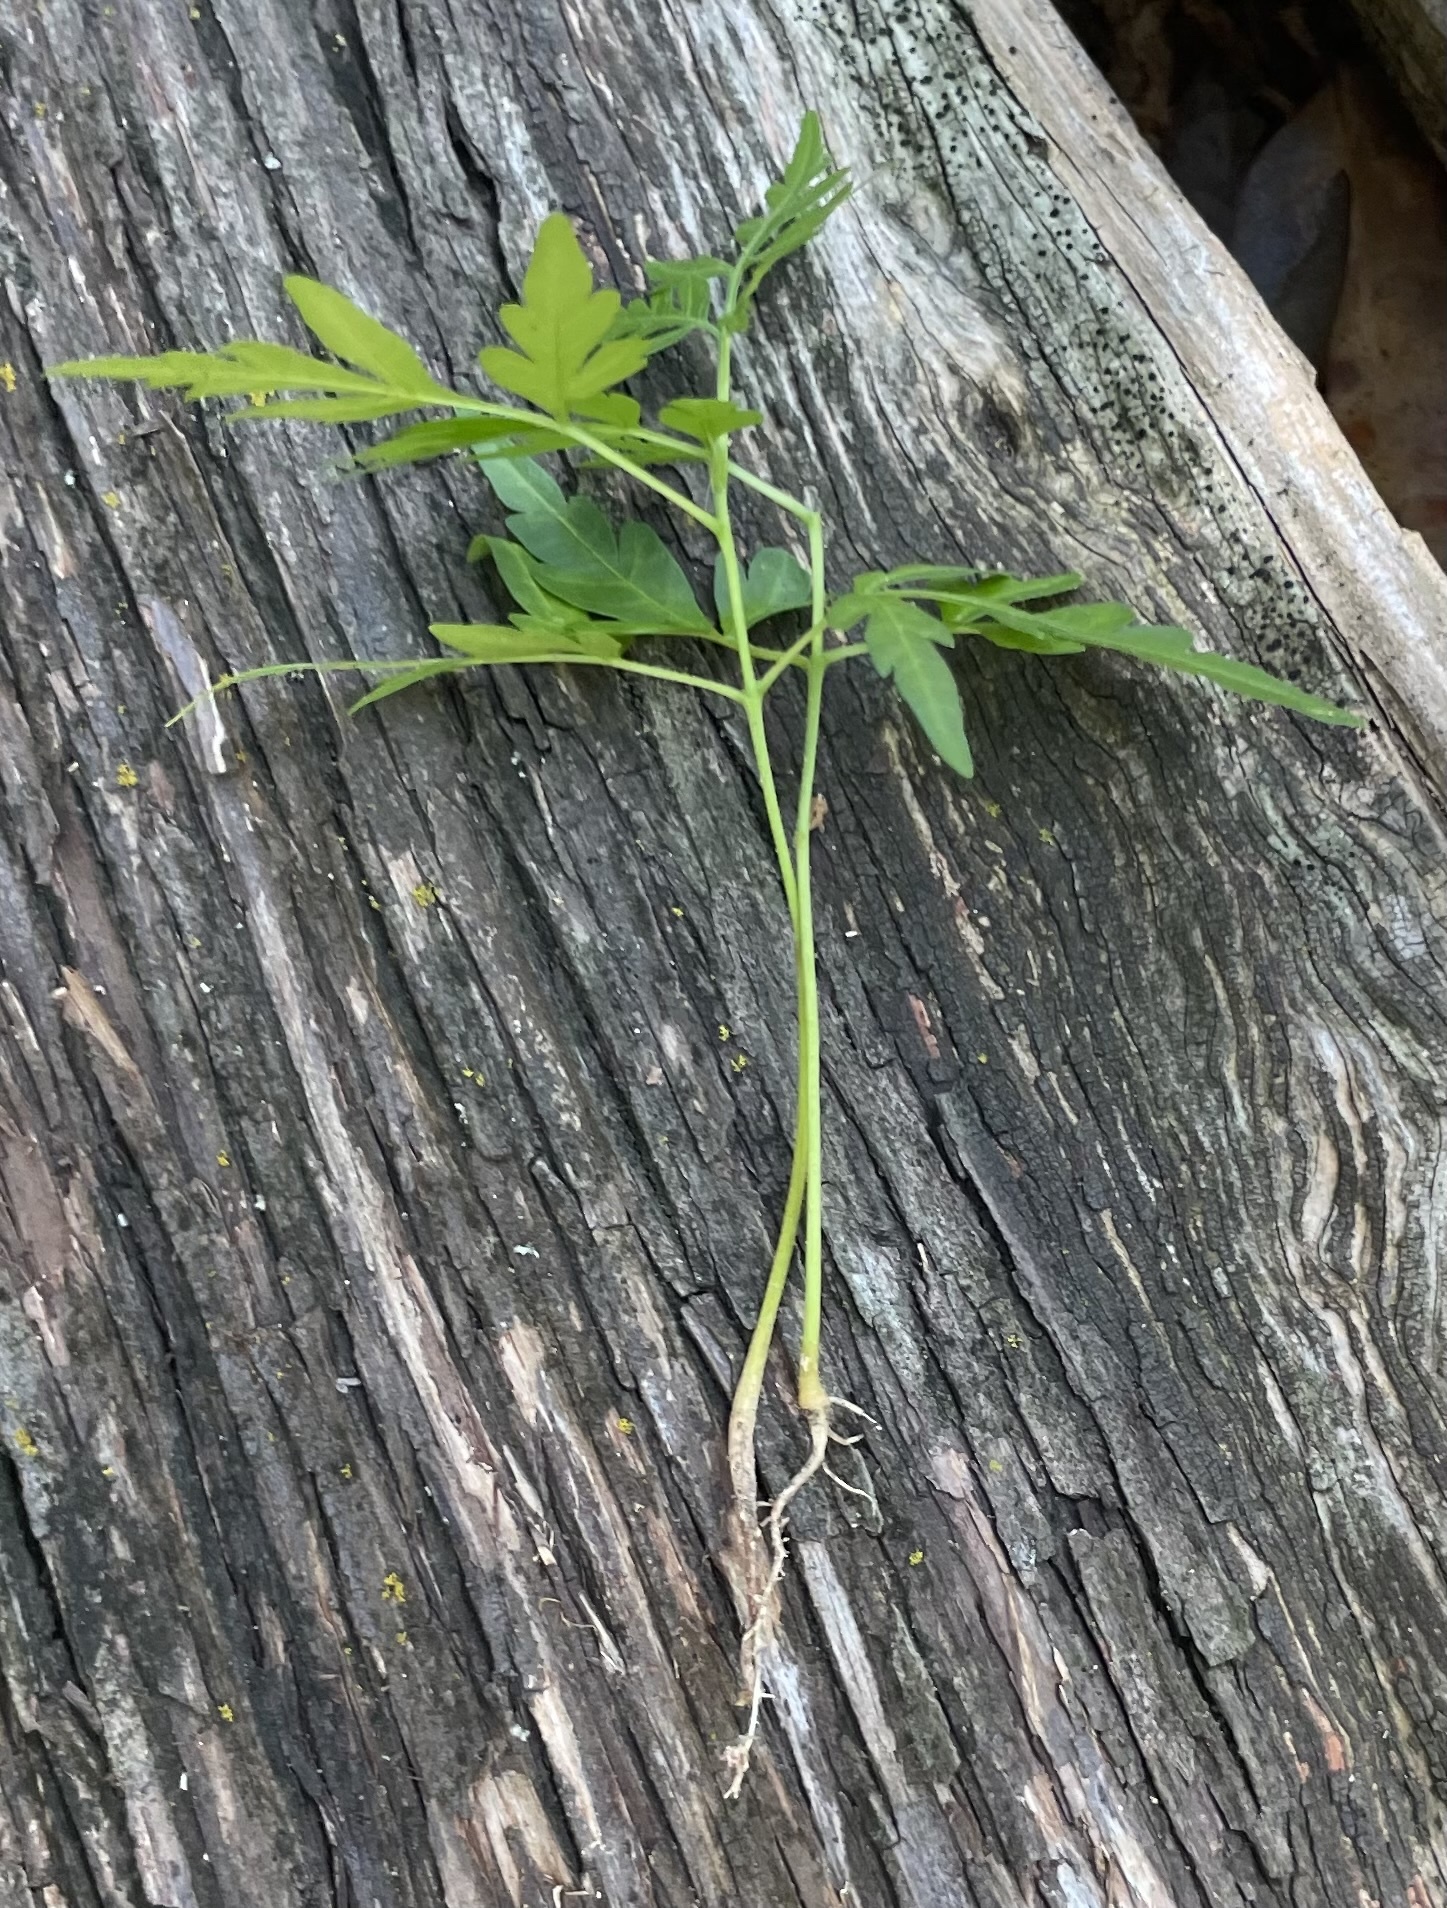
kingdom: Plantae
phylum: Tracheophyta
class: Magnoliopsida
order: Sapindales
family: Meliaceae
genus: Melia
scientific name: Melia azedarach
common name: Chinaberrytree
